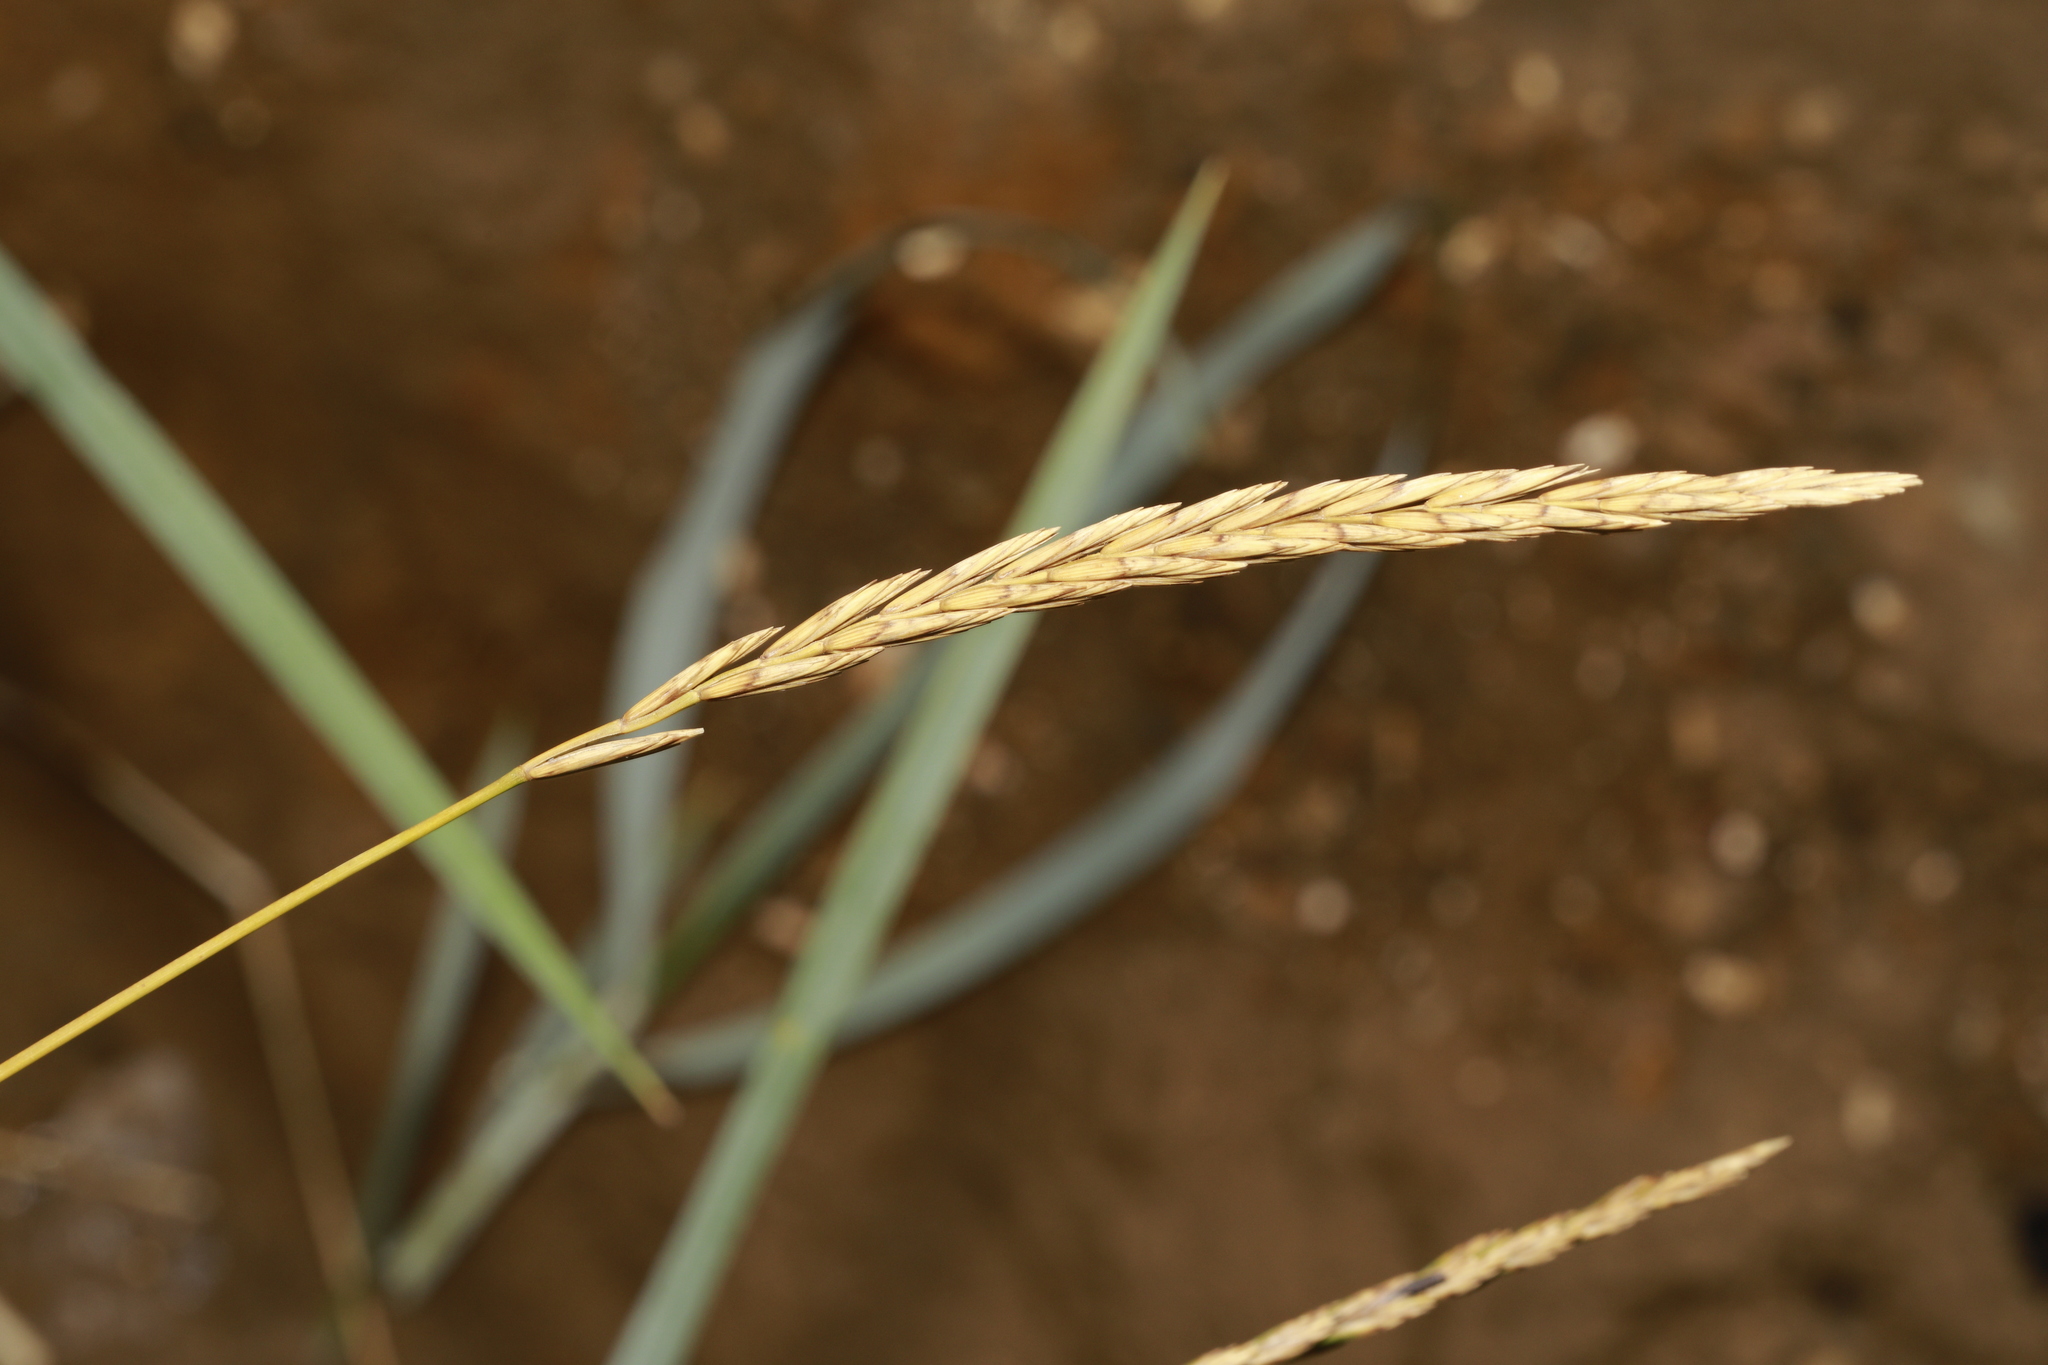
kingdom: Plantae
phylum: Tracheophyta
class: Liliopsida
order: Poales
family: Poaceae
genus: Leymus
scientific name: Leymus arenarius
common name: Lyme-grass
